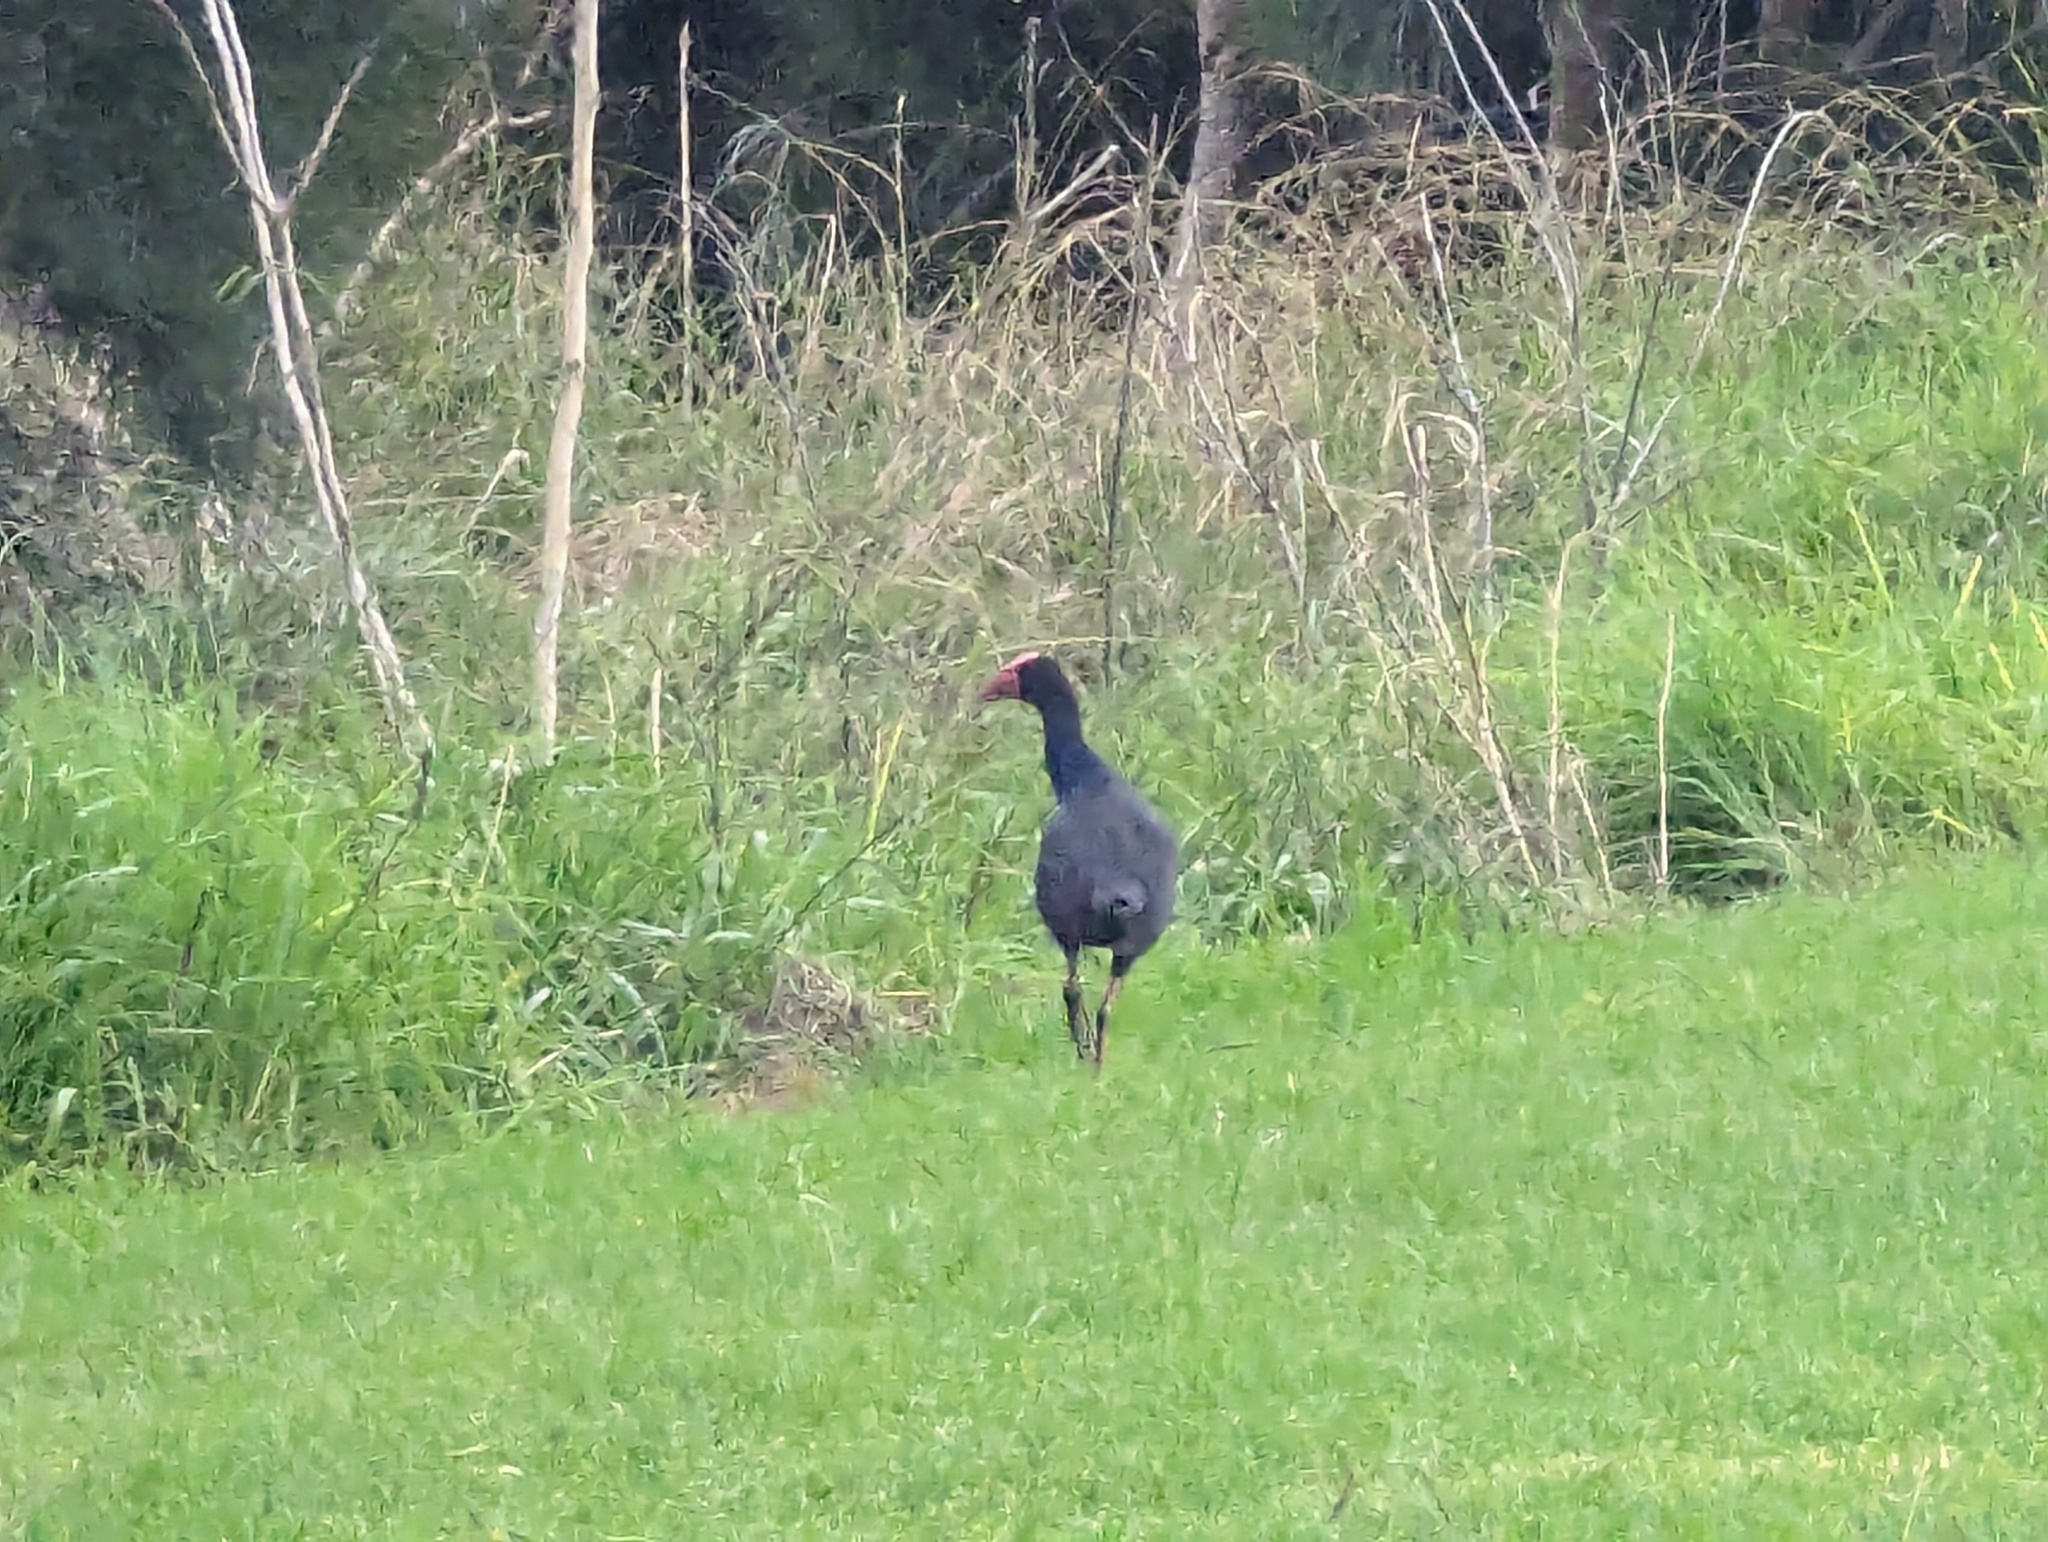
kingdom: Animalia
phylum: Chordata
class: Aves
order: Gruiformes
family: Rallidae
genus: Porphyrio
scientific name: Porphyrio melanotus
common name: Australasian swamphen
